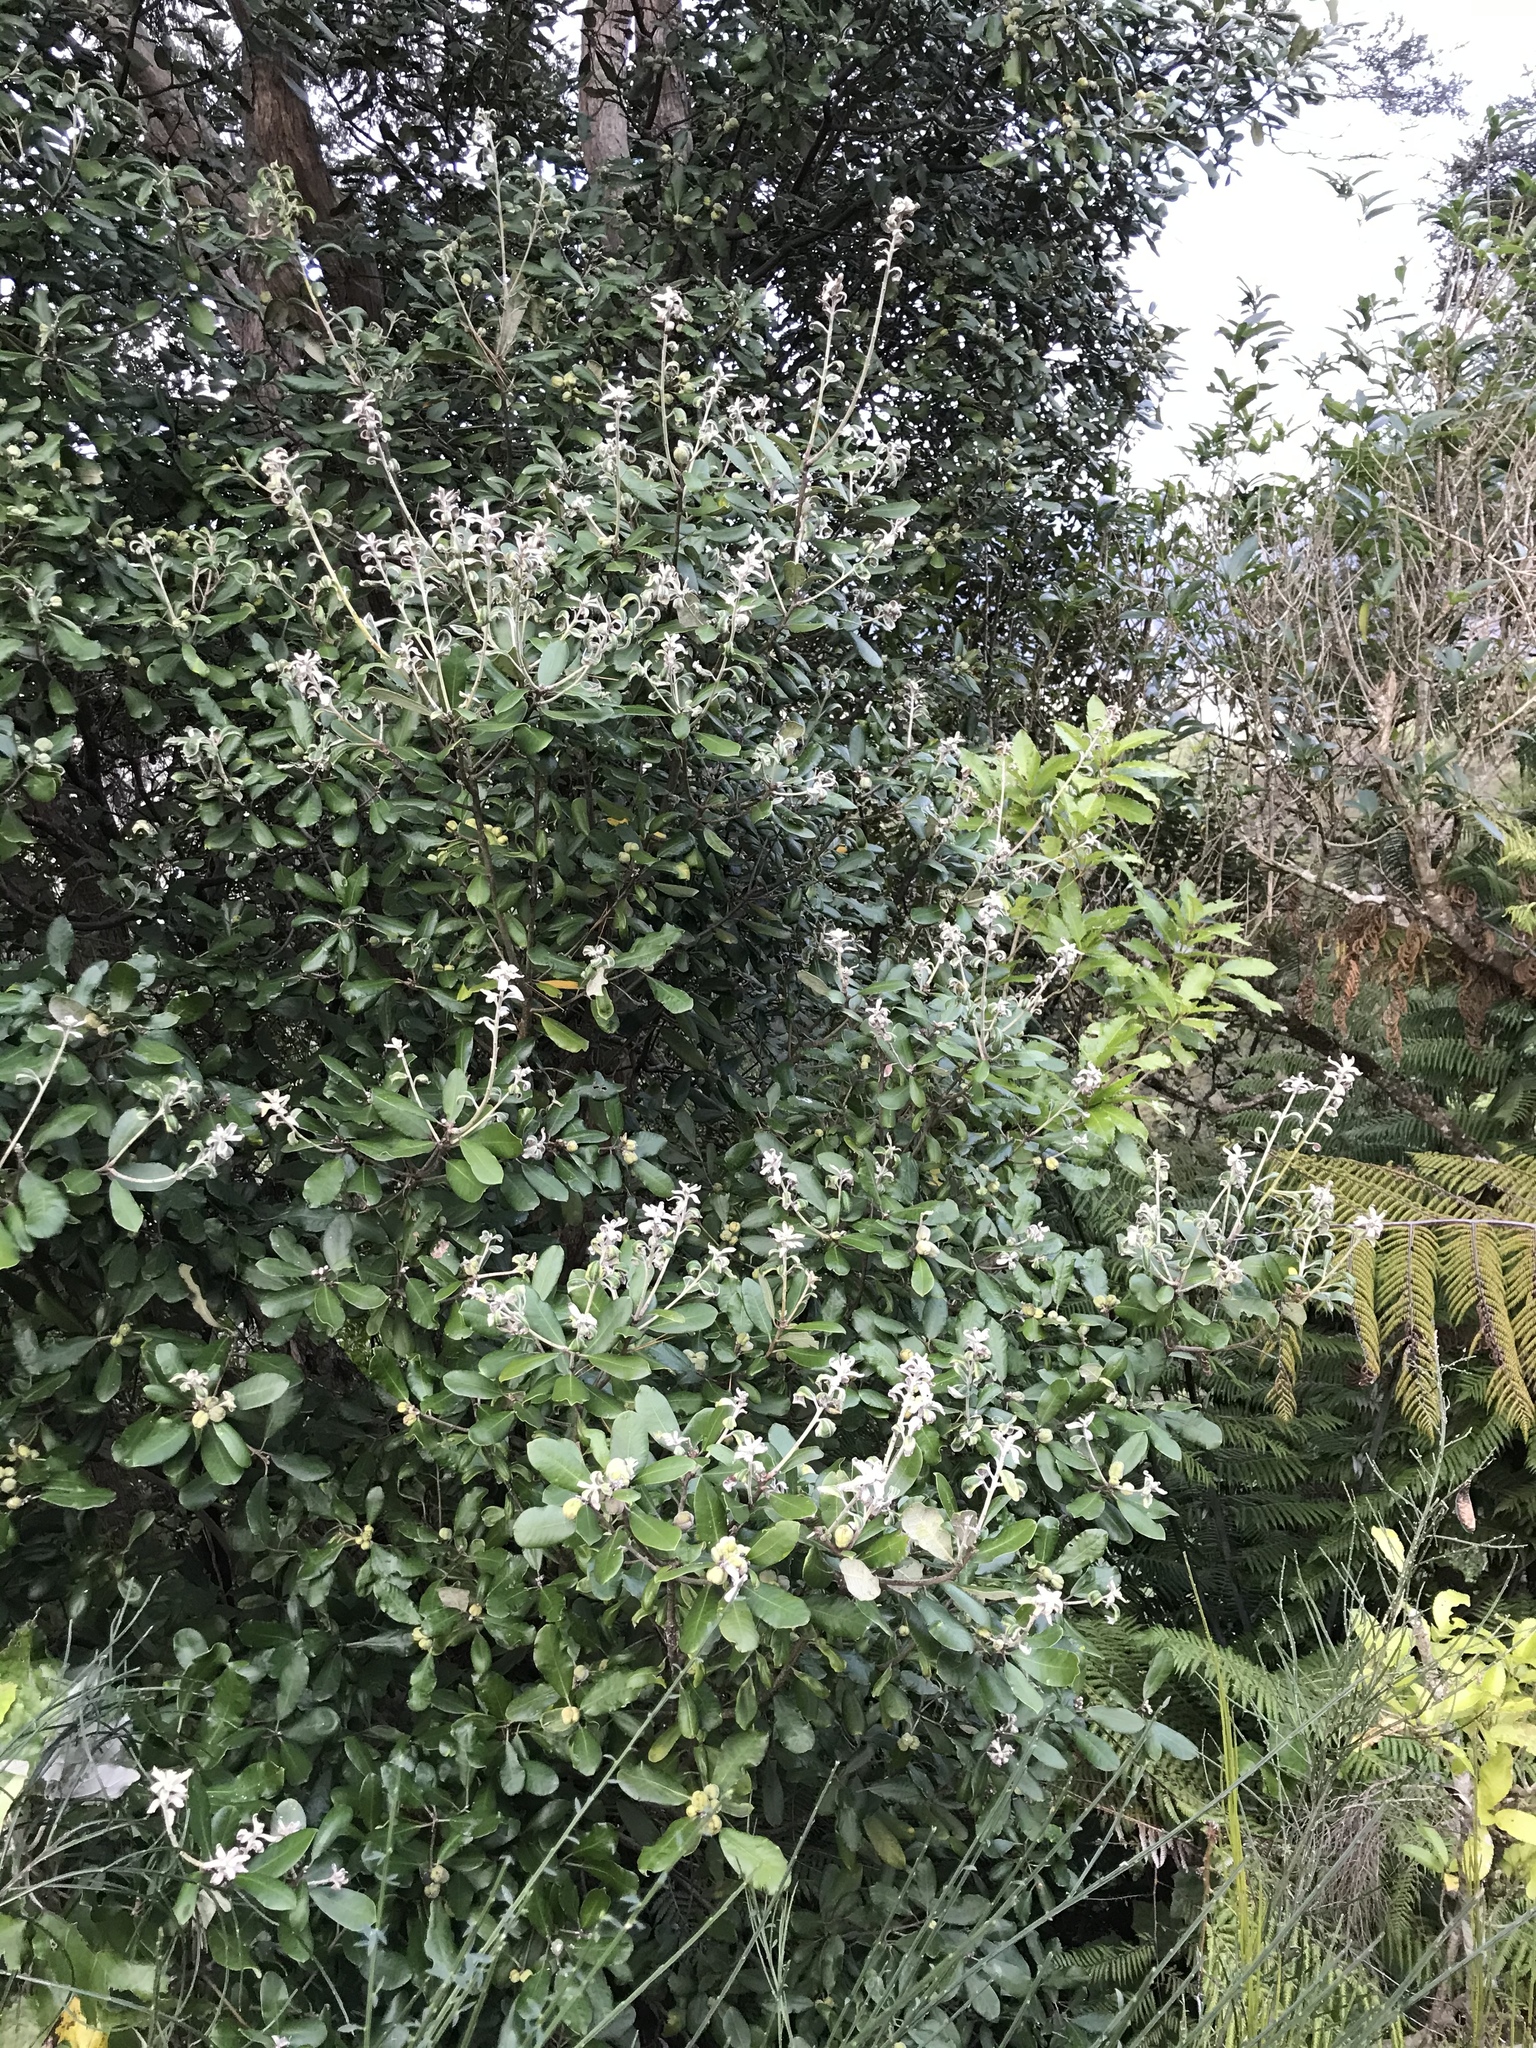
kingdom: Plantae
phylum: Tracheophyta
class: Magnoliopsida
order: Apiales
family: Pittosporaceae
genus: Pittosporum
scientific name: Pittosporum ralphii
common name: Ralph's desertwillow
